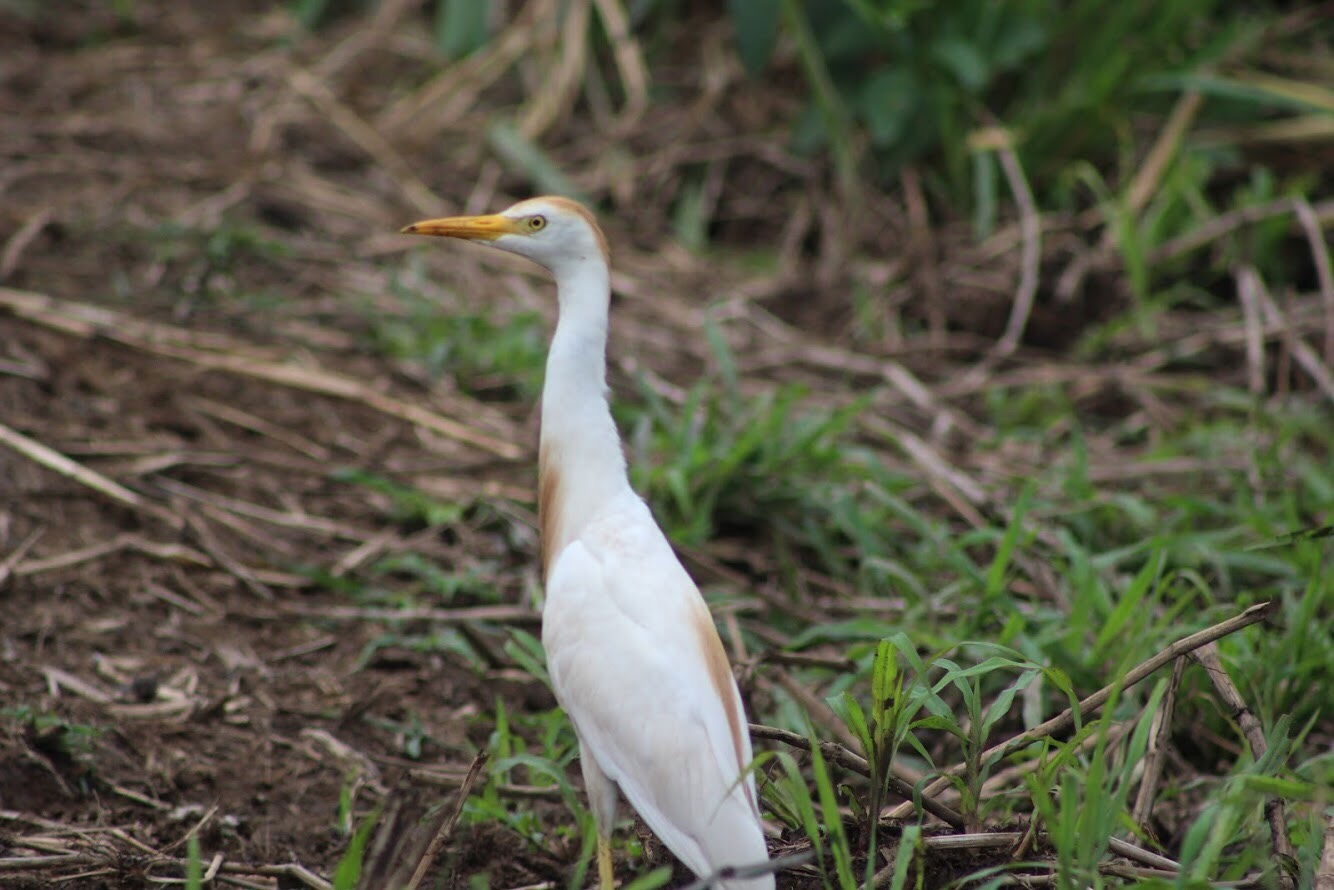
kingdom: Animalia
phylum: Chordata
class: Aves
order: Pelecaniformes
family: Ardeidae
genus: Bubulcus
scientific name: Bubulcus ibis
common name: Cattle egret
